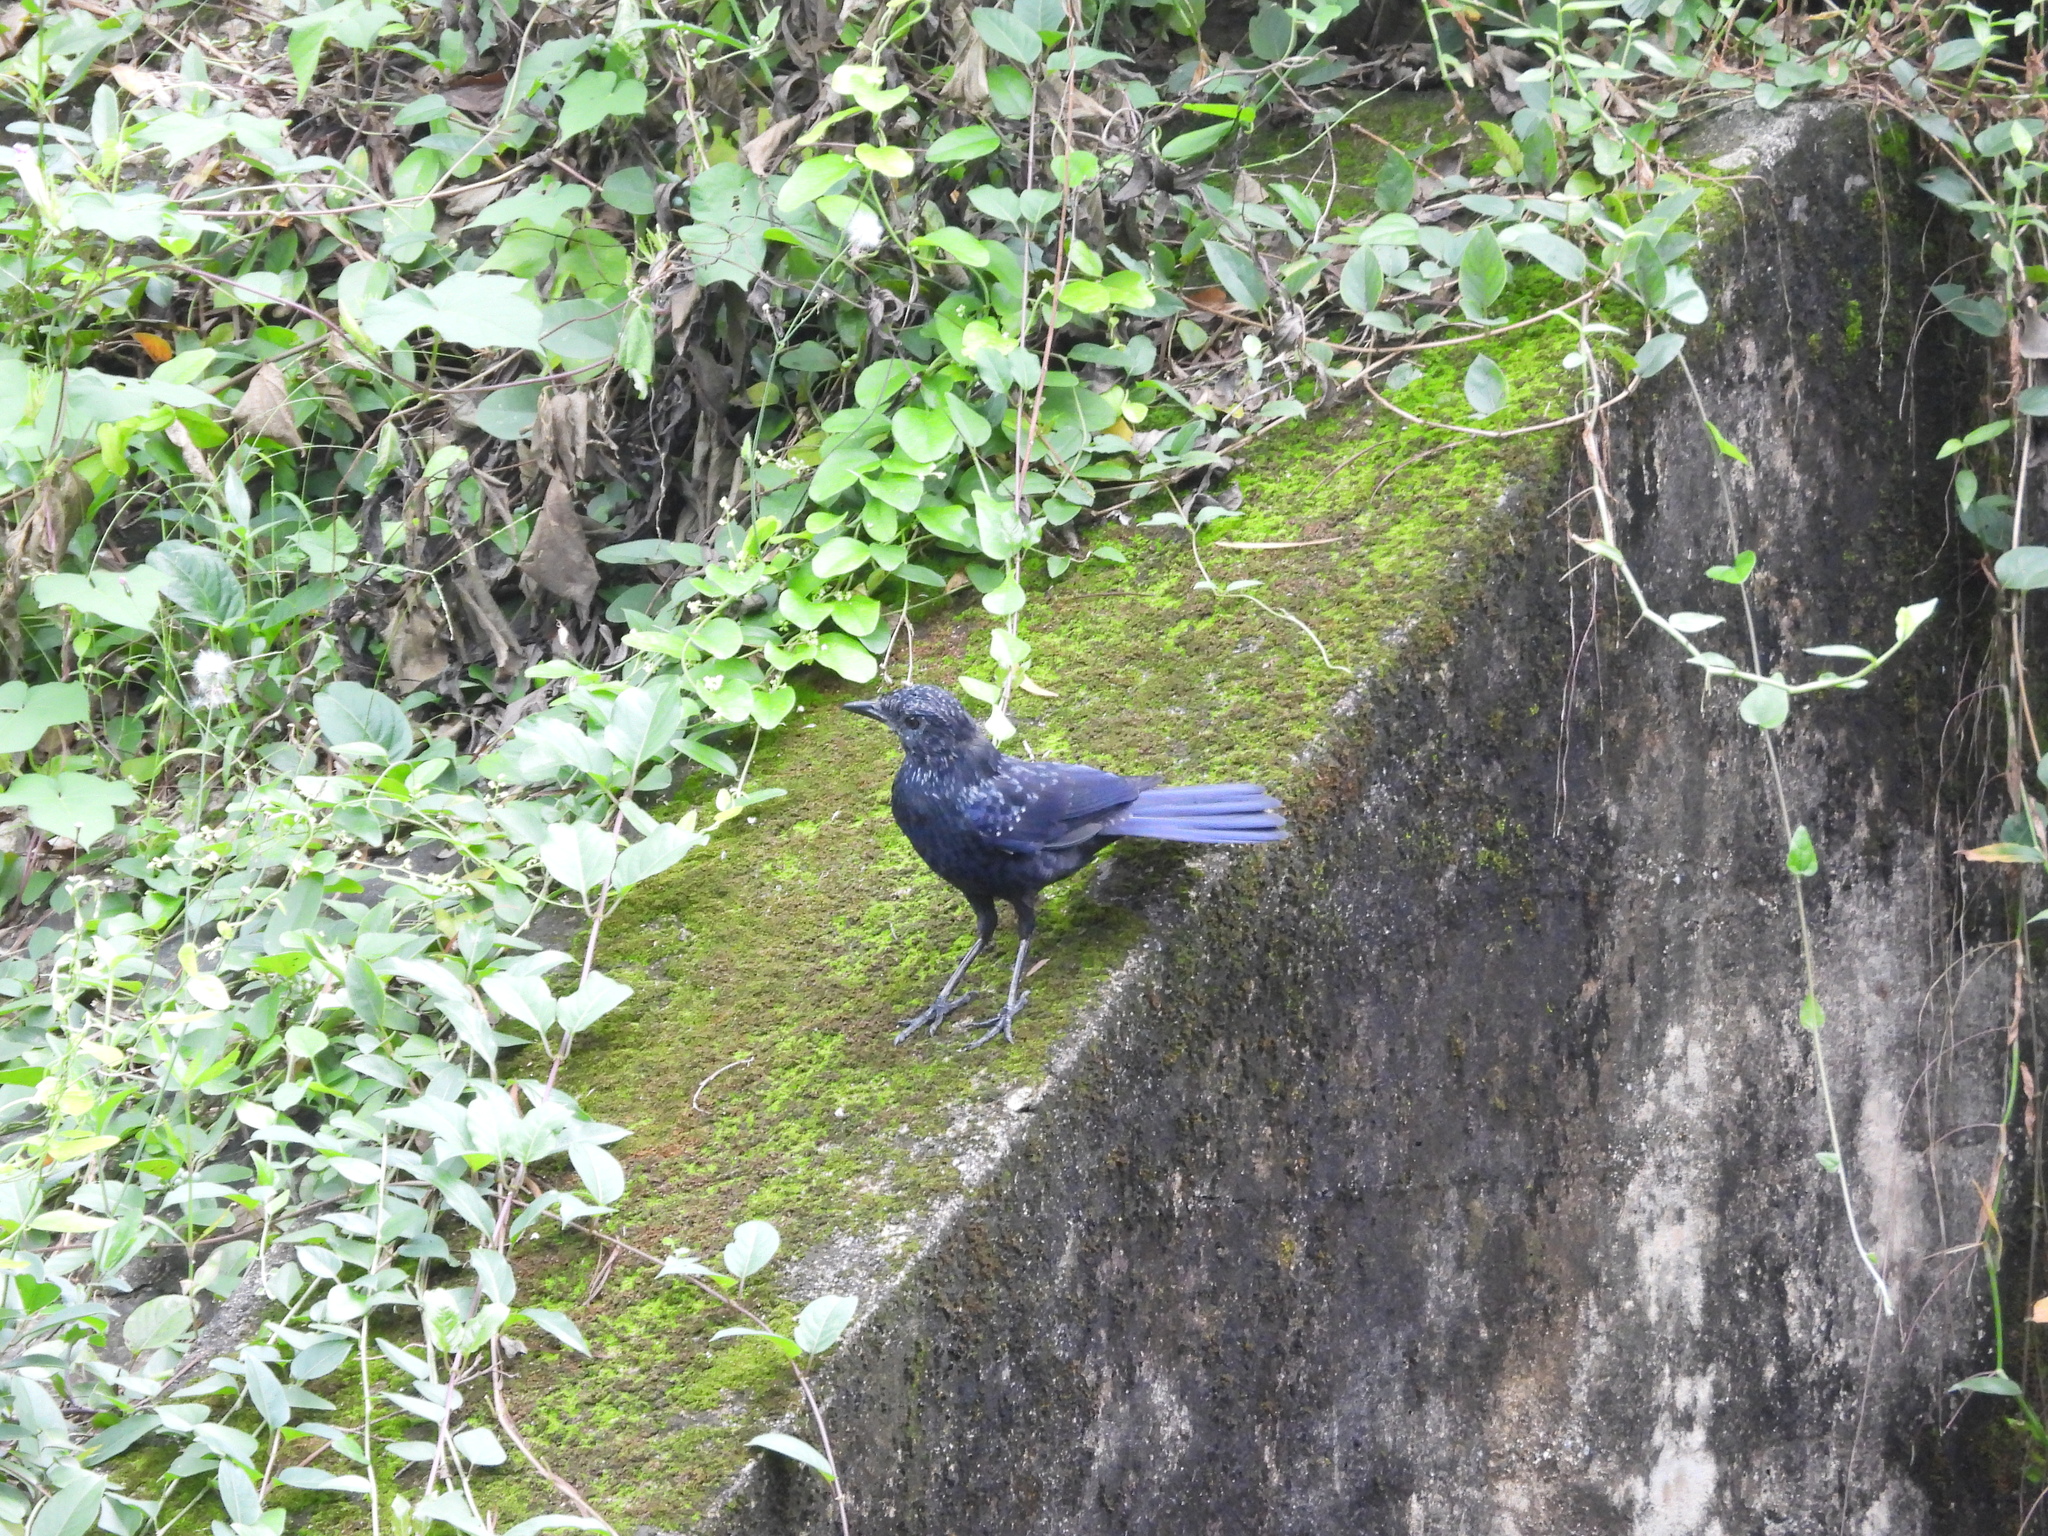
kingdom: Animalia
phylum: Chordata
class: Aves
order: Passeriformes
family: Muscicapidae
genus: Myophonus
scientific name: Myophonus caeruleus
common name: Blue whistling-thrush
